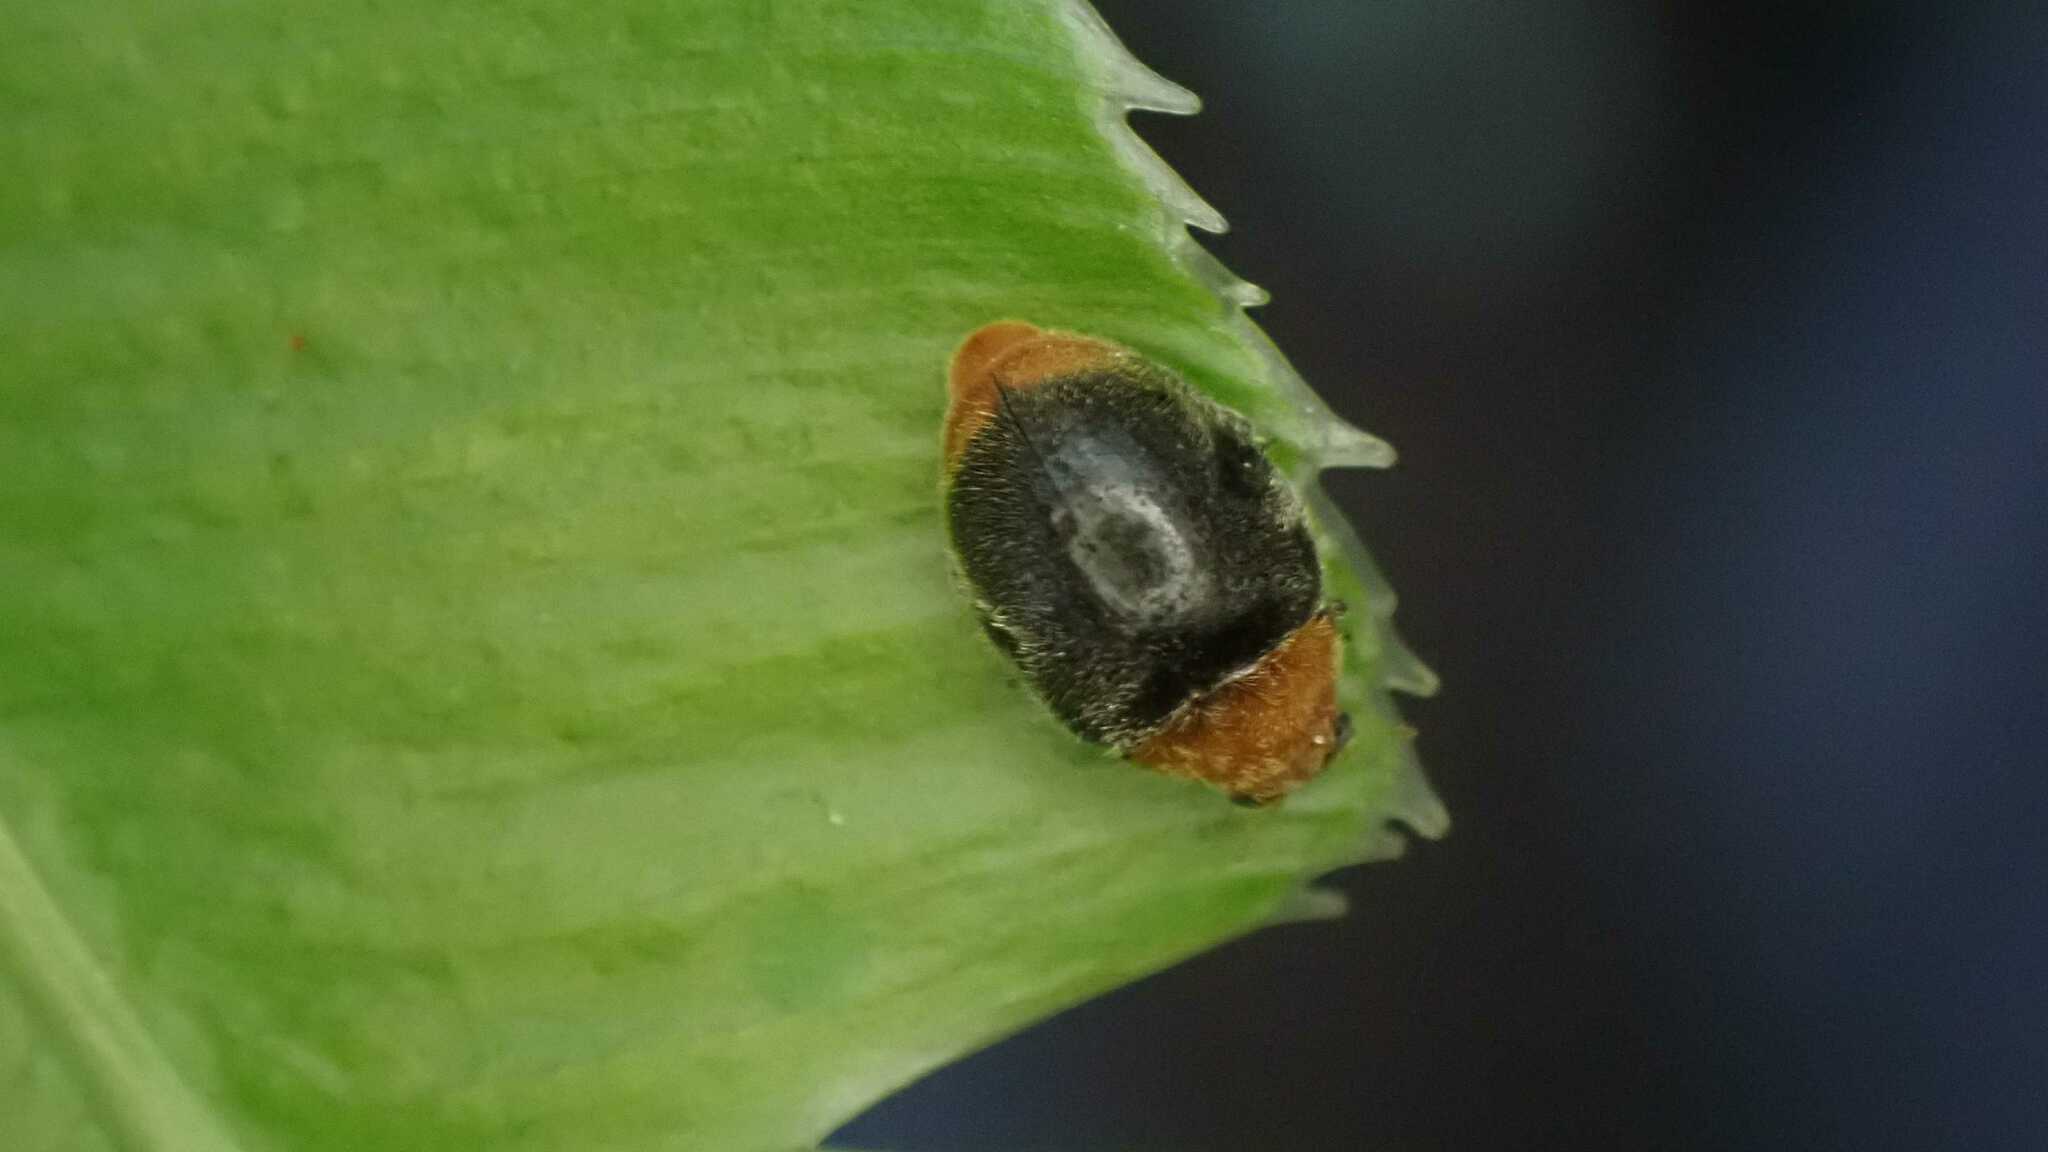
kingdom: Animalia
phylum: Arthropoda
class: Insecta
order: Coleoptera
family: Coccinellidae
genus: Cryptolaemus
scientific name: Cryptolaemus montrouzieri
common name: Mealybug destroyer
